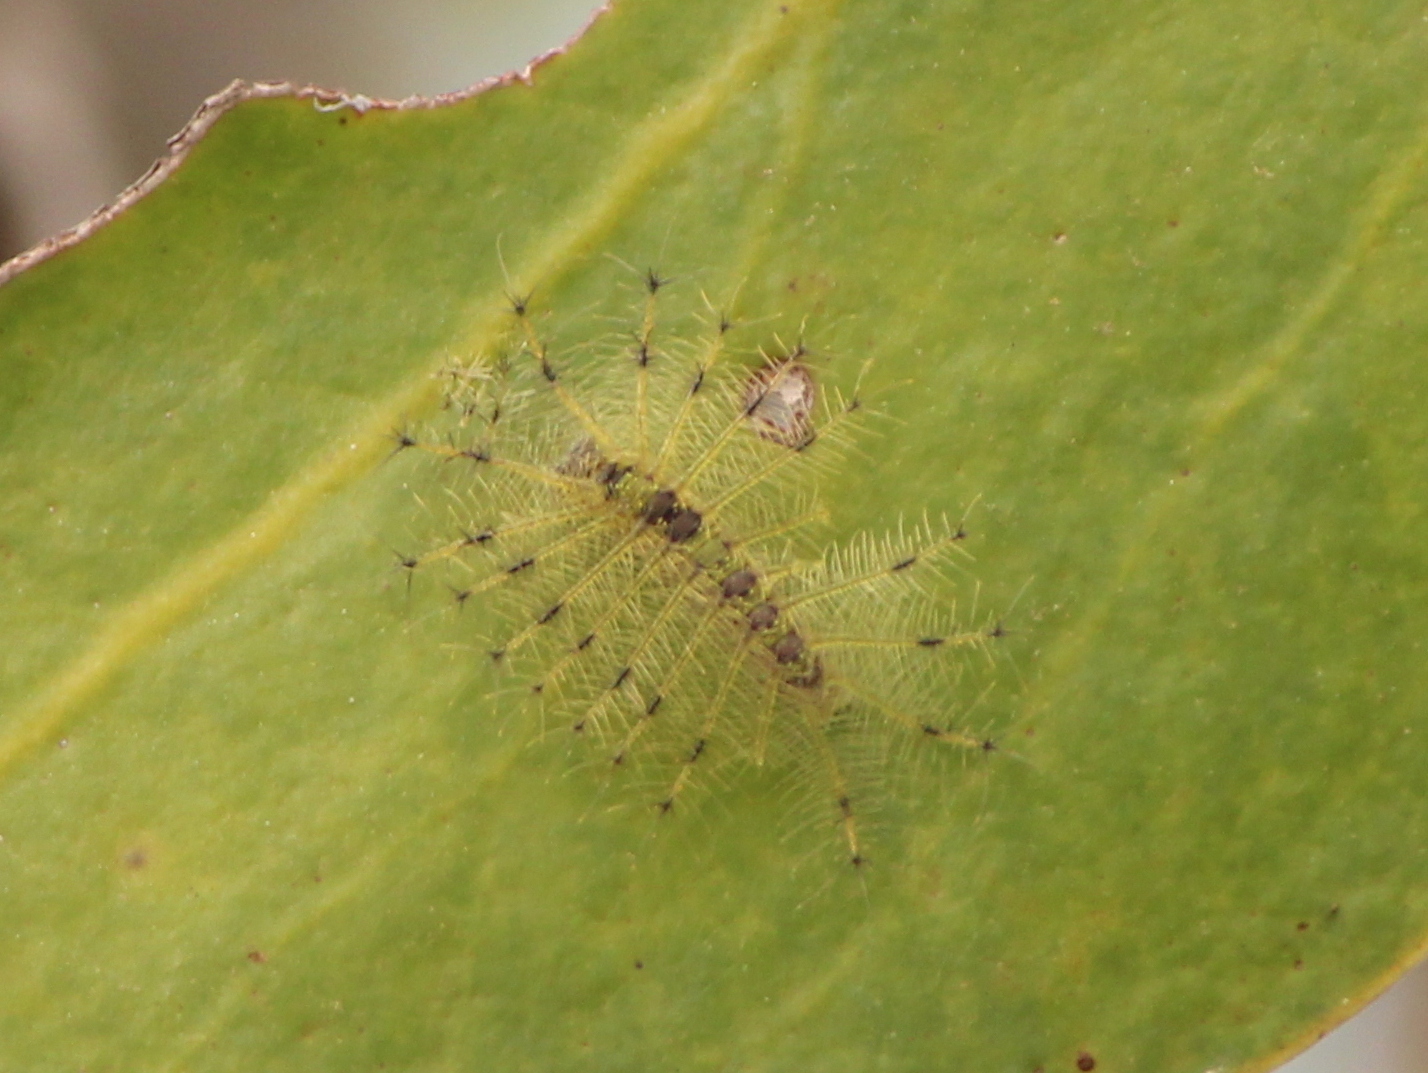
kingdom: Animalia
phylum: Arthropoda
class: Insecta
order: Lepidoptera
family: Nymphalidae
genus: Euthalia
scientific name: Euthalia lubentina
